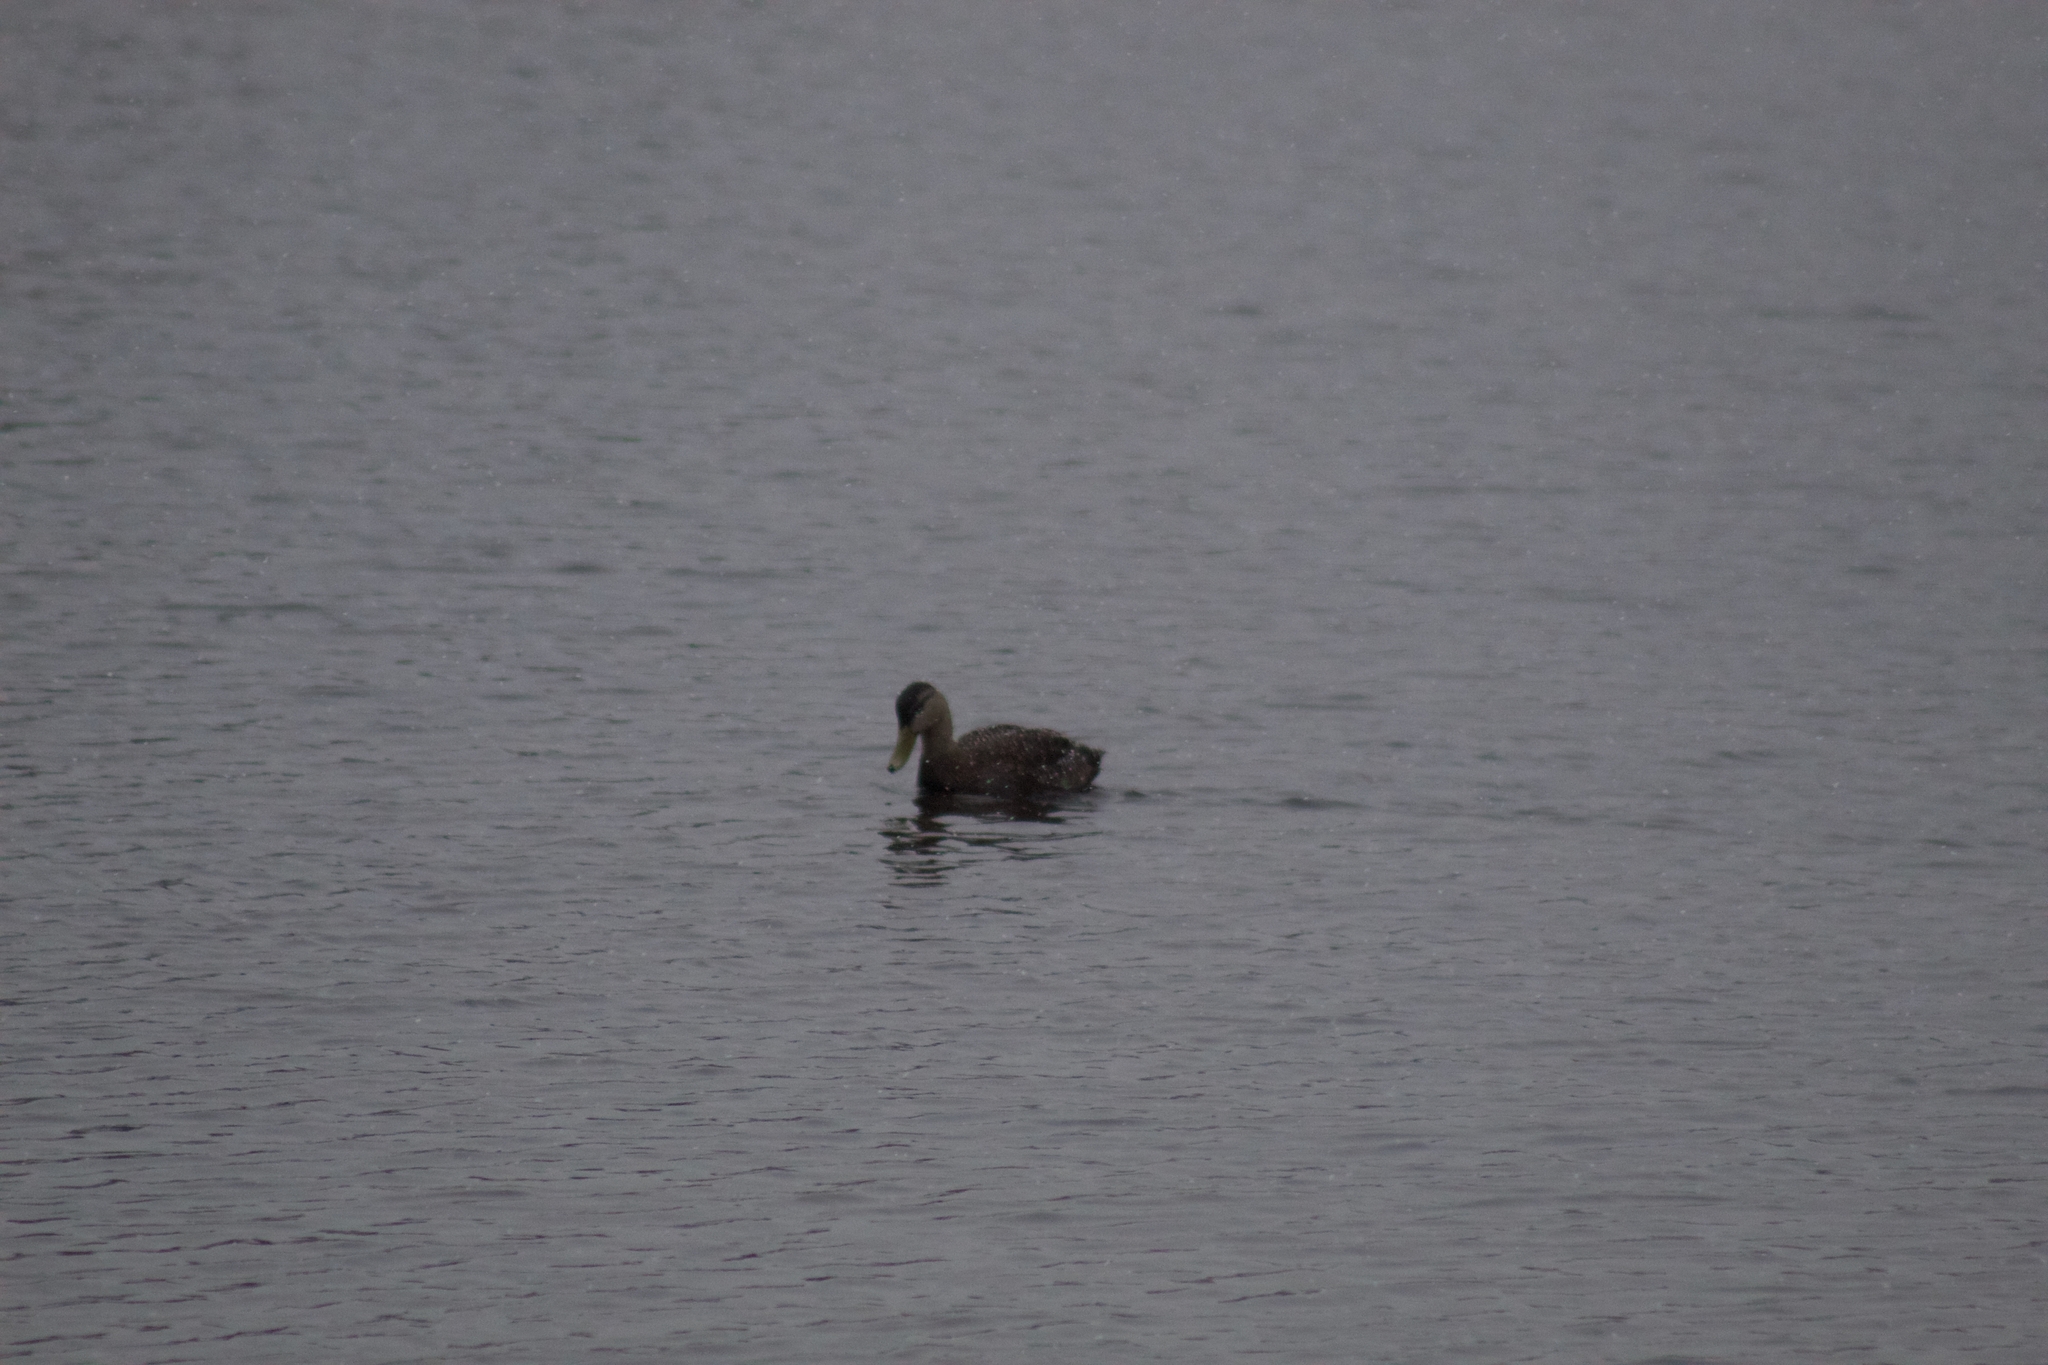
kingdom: Animalia
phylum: Chordata
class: Aves
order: Anseriformes
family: Anatidae
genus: Anas
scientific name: Anas rubripes
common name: American black duck
